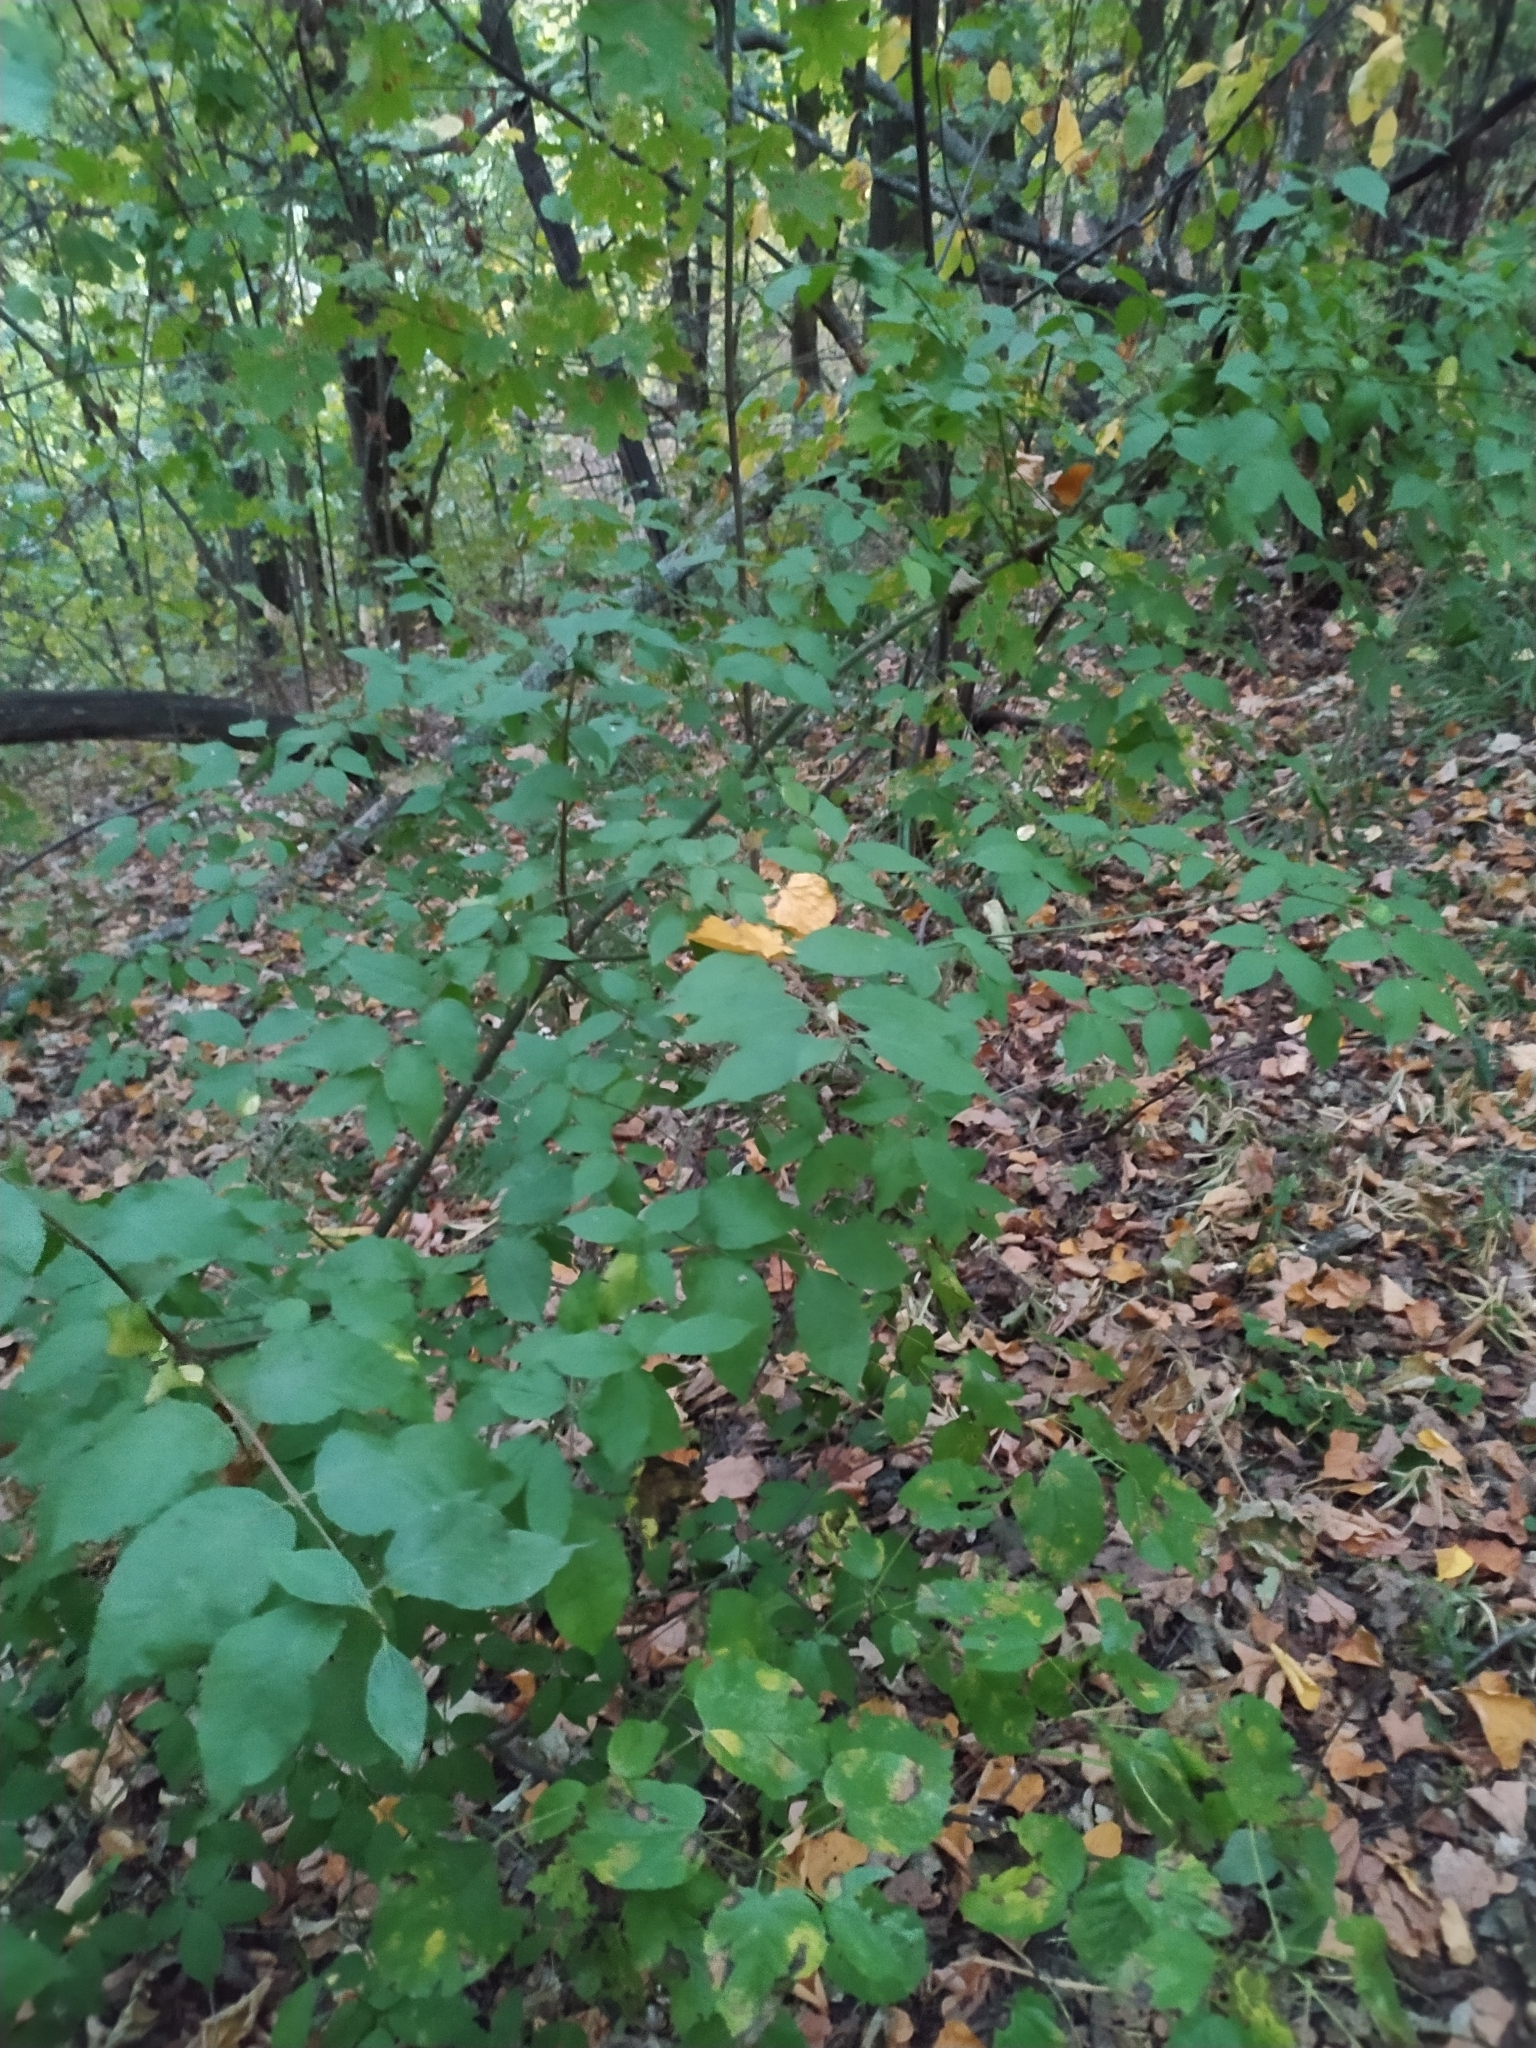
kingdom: Plantae
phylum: Tracheophyta
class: Magnoliopsida
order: Celastrales
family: Celastraceae
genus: Euonymus
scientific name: Euonymus verrucosus
